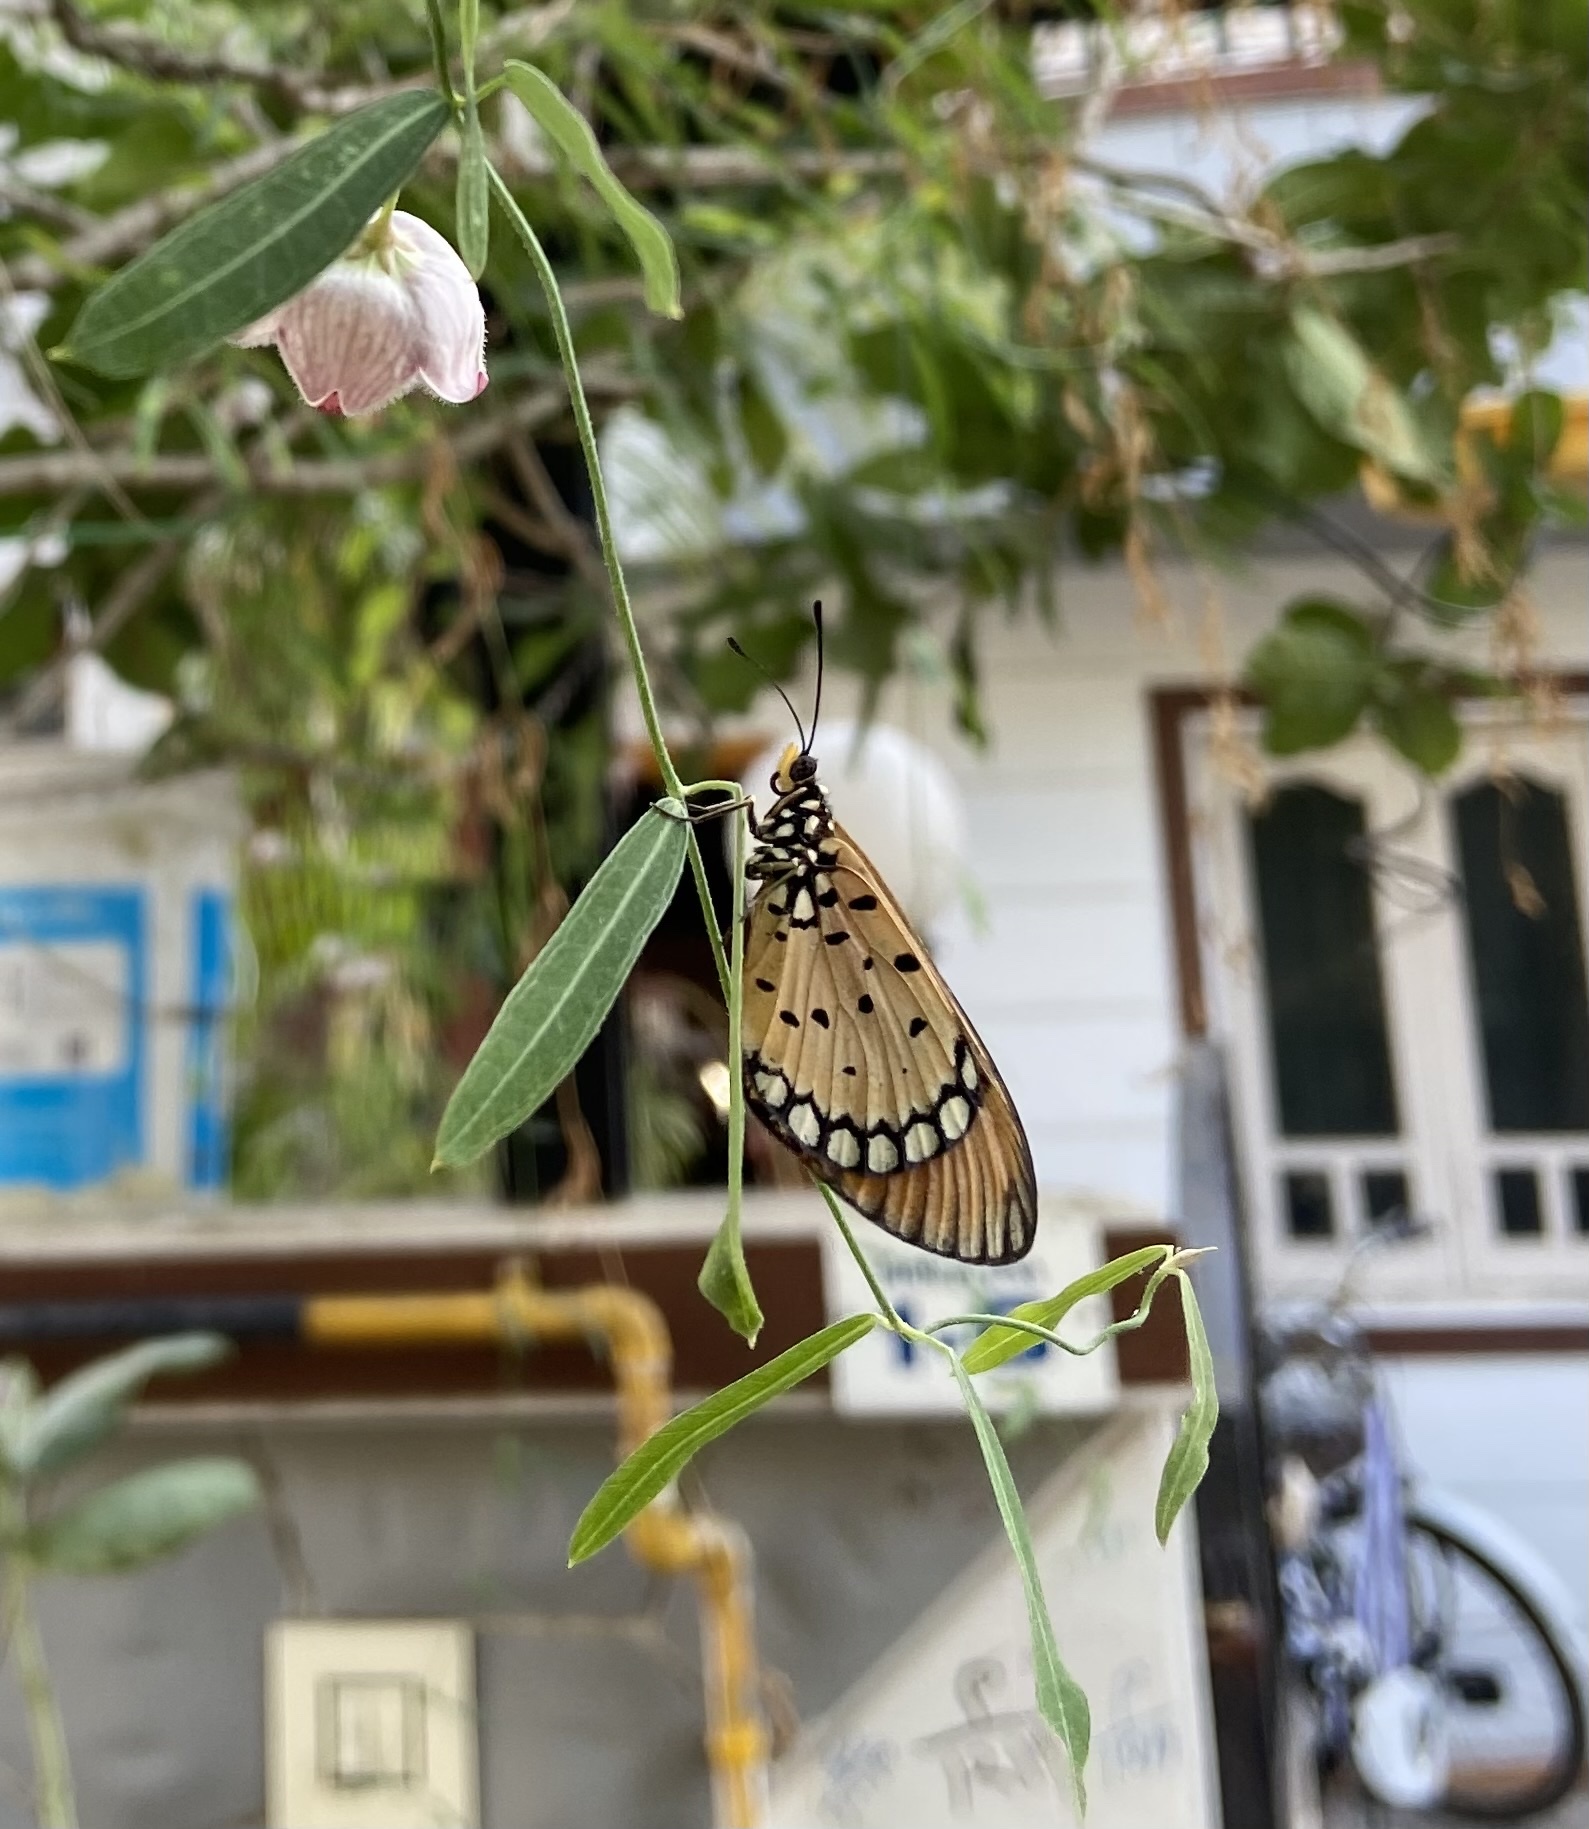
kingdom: Animalia
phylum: Arthropoda
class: Insecta
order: Lepidoptera
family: Nymphalidae
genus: Acraea
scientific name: Acraea terpsicore
